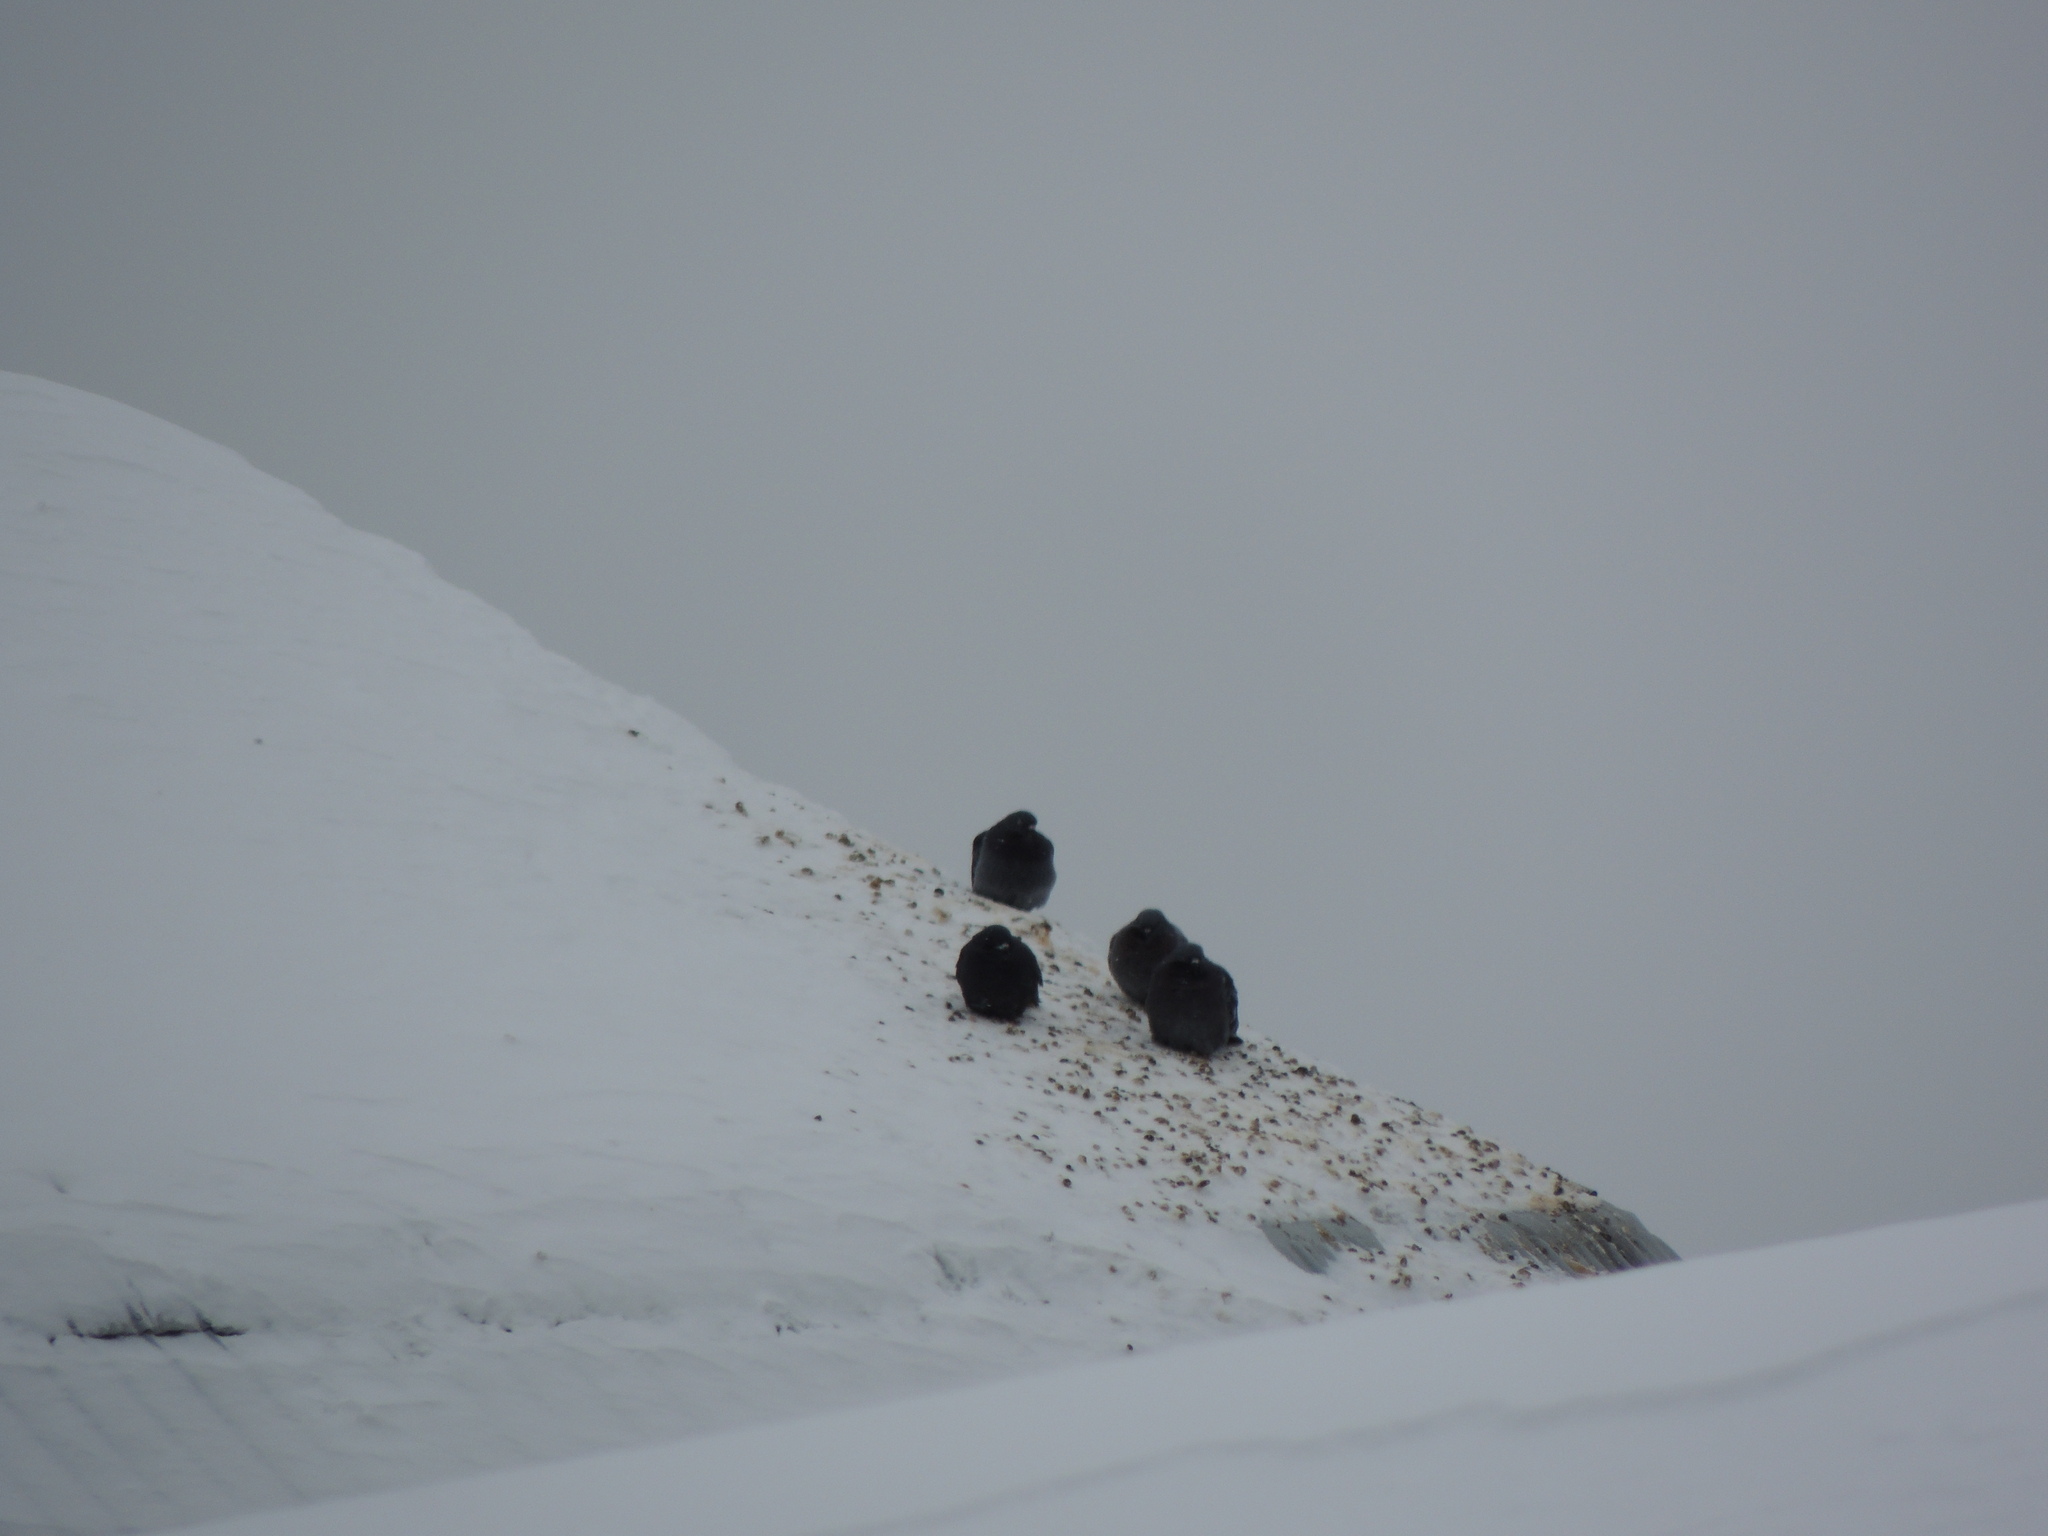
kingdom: Animalia
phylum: Chordata
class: Aves
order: Columbiformes
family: Columbidae
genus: Columba
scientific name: Columba livia
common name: Rock pigeon
